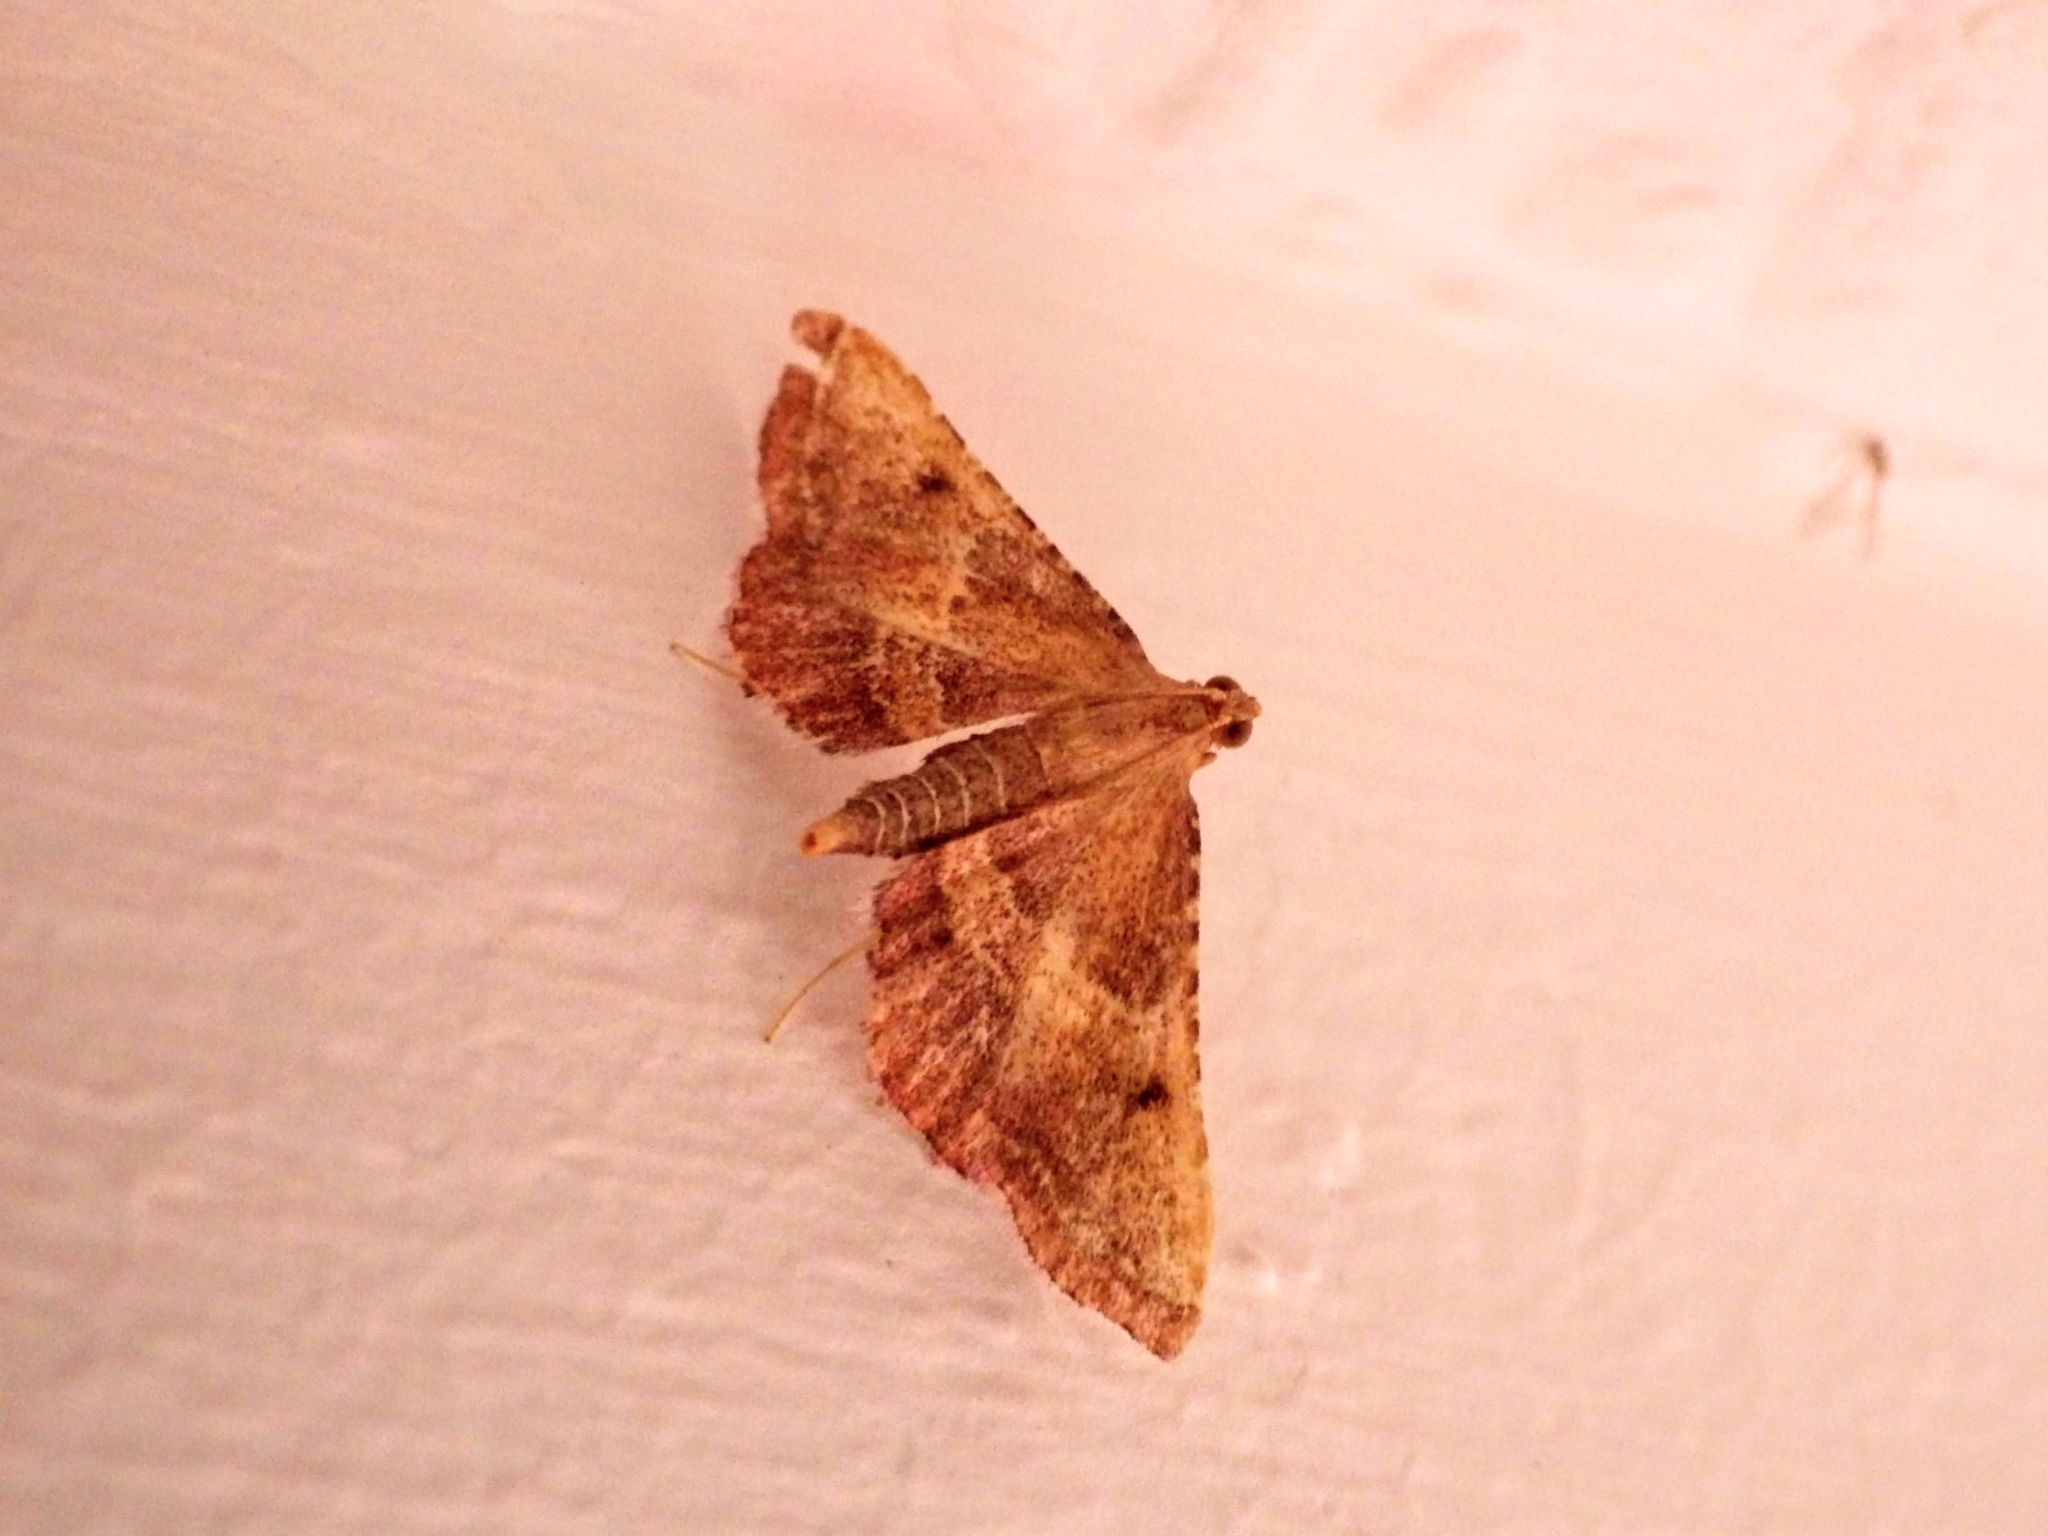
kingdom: Animalia
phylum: Arthropoda
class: Insecta
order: Lepidoptera
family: Pyralidae
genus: Endotricha
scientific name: Endotricha flammealis
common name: Rosy tabby
